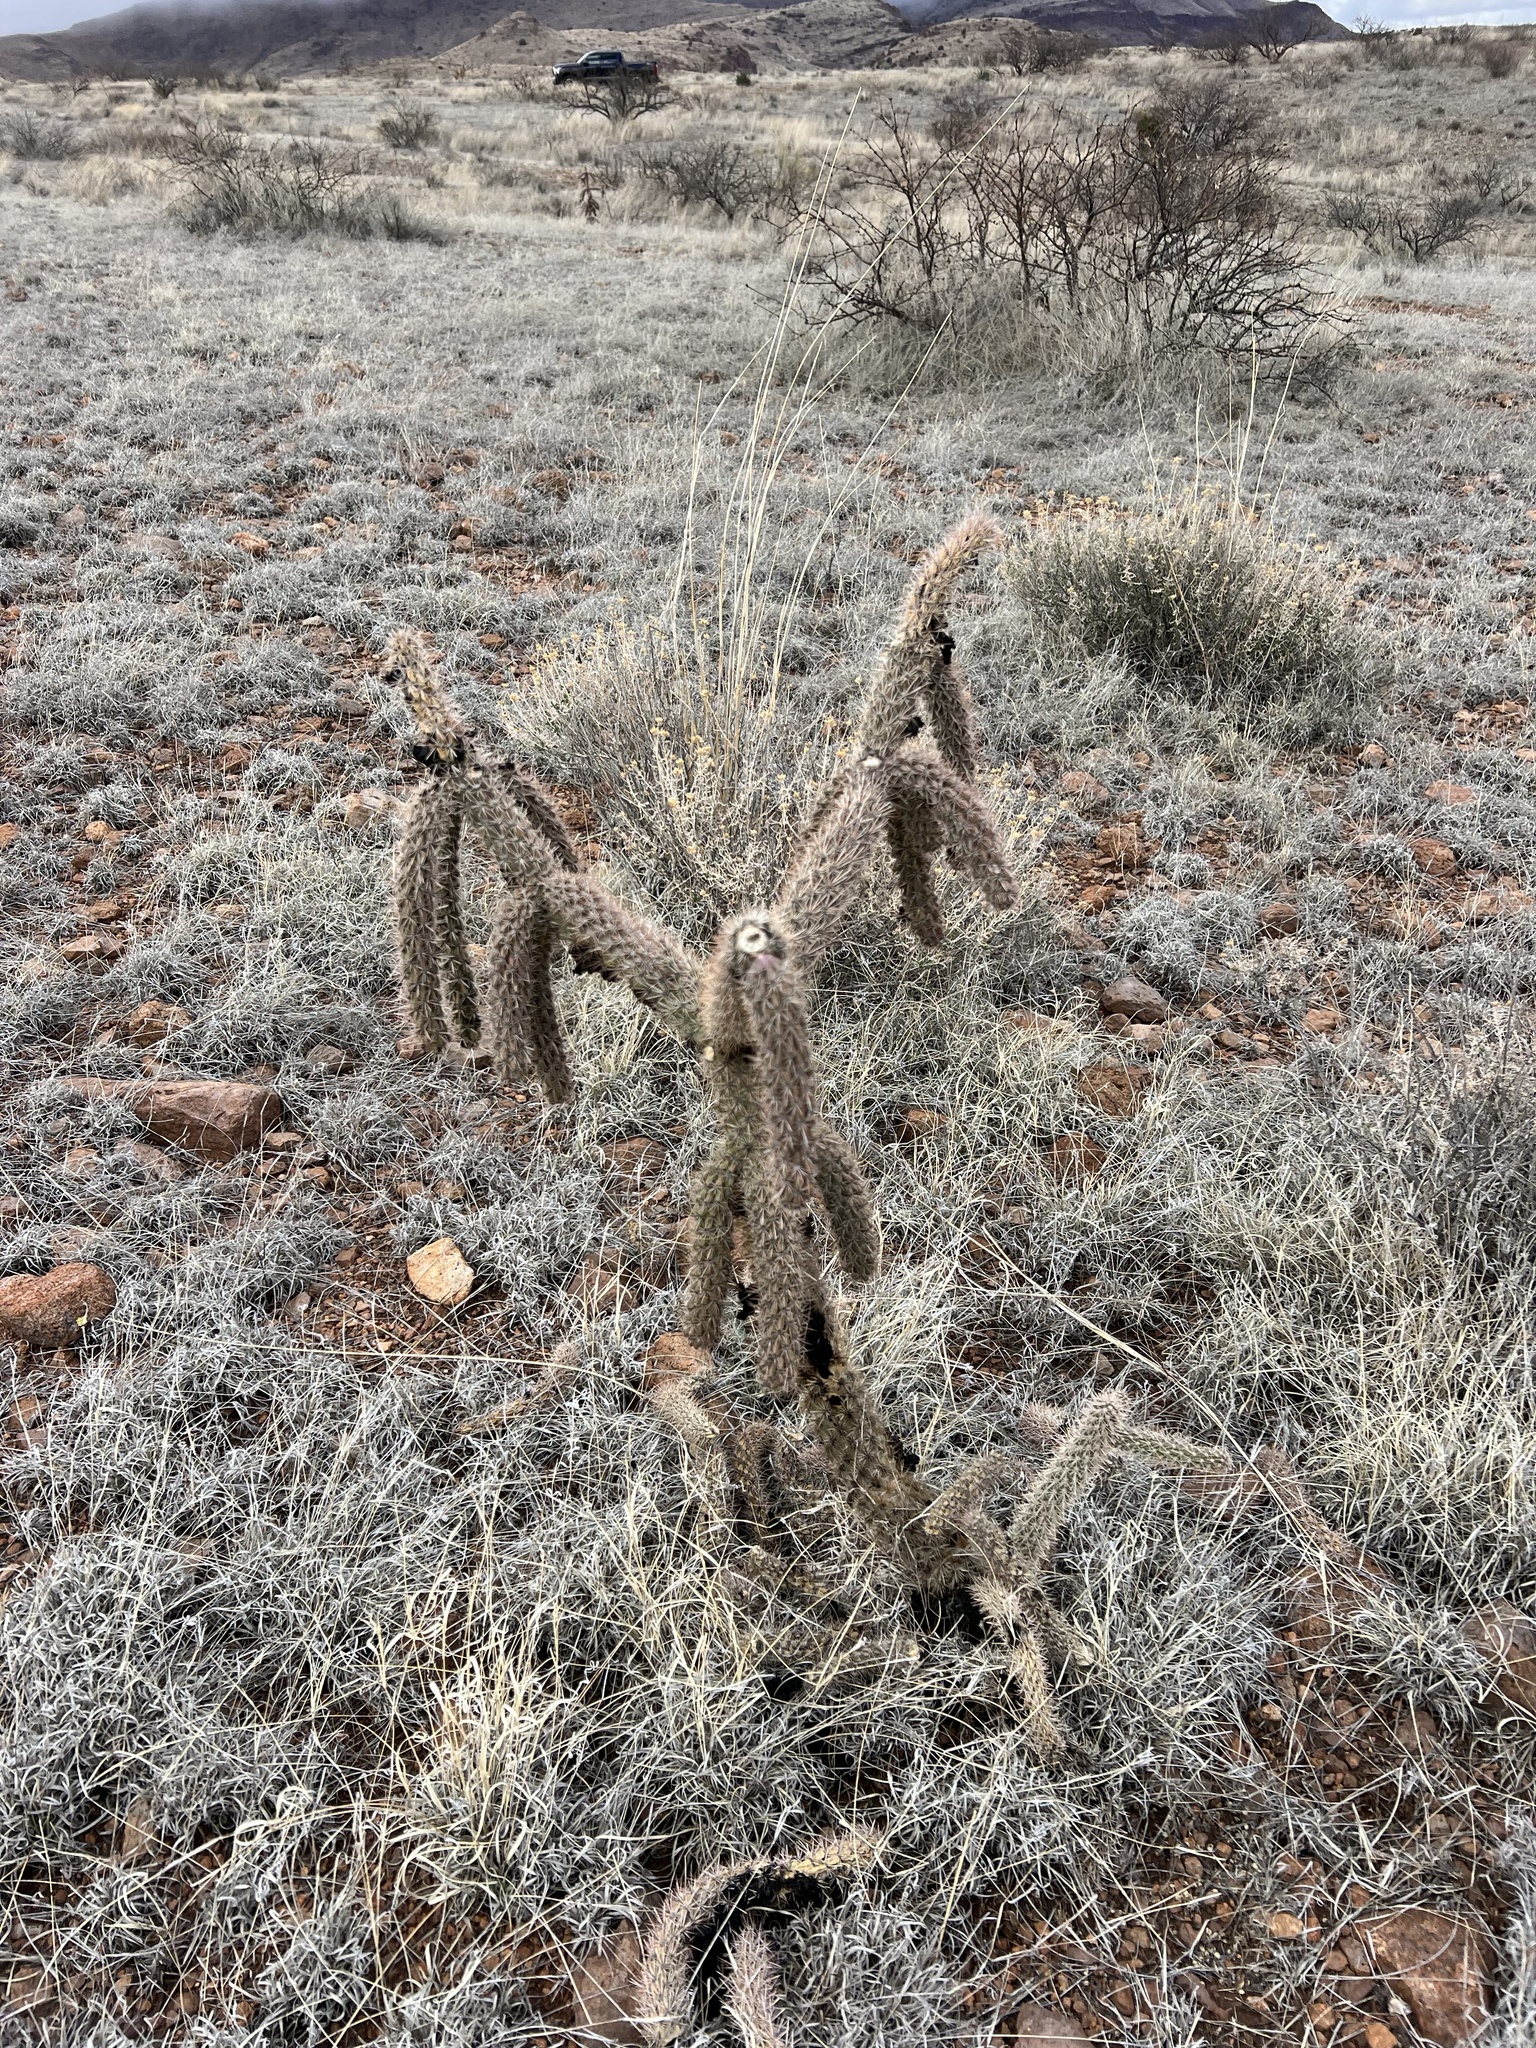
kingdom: Plantae
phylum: Tracheophyta
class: Magnoliopsida
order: Caryophyllales
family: Cactaceae
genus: Cylindropuntia
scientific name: Cylindropuntia imbricata
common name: Candelabrum cactus
